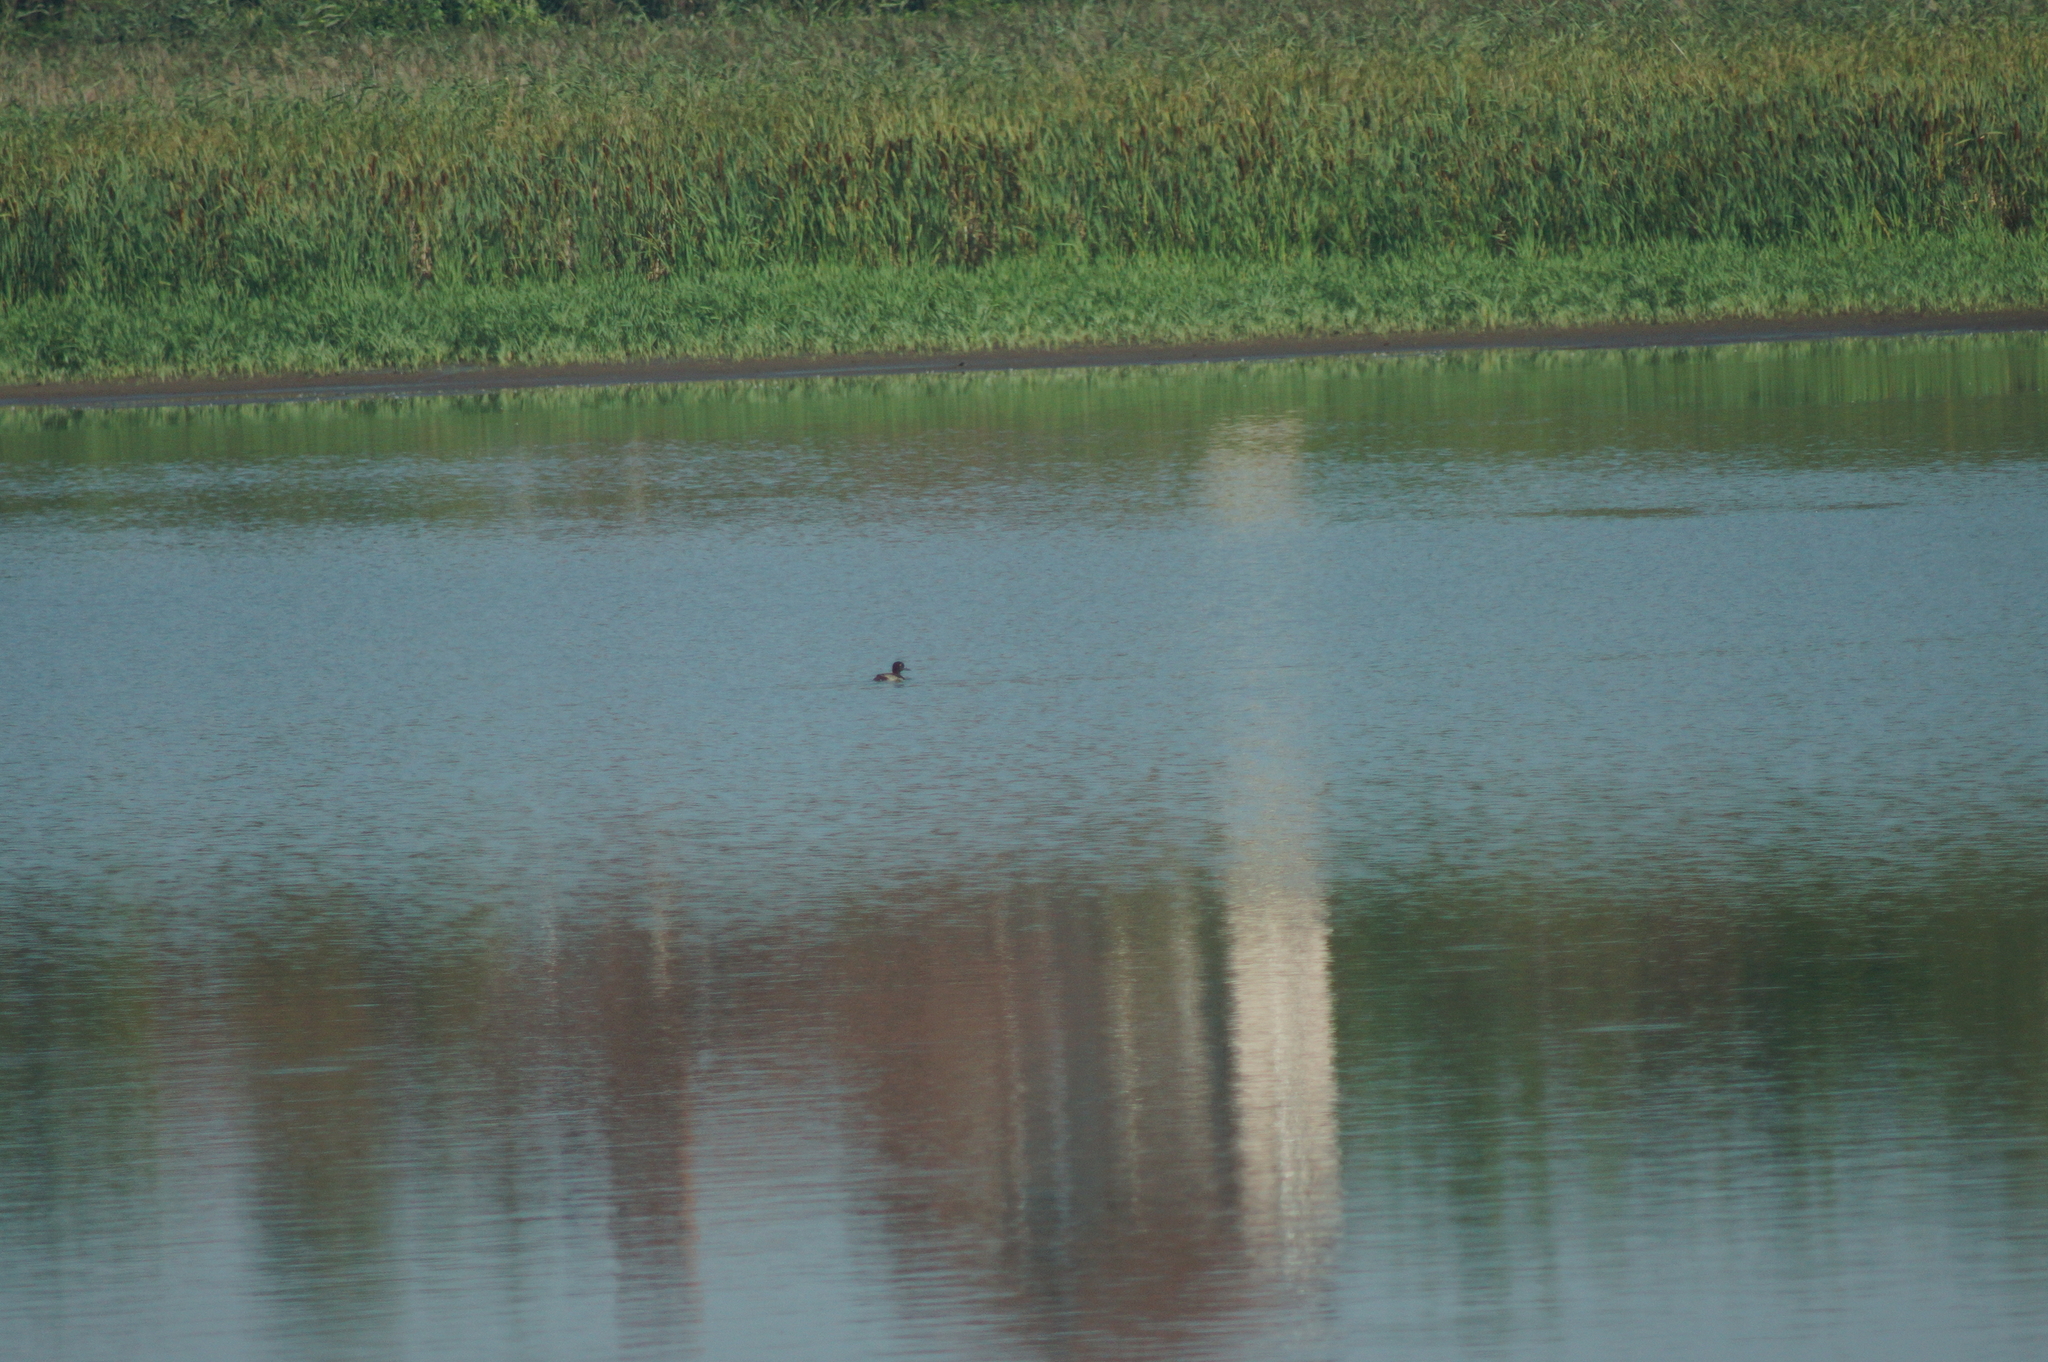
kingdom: Animalia
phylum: Chordata
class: Aves
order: Anseriformes
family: Anatidae
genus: Aythya
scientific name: Aythya fuligula
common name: Tufted duck
